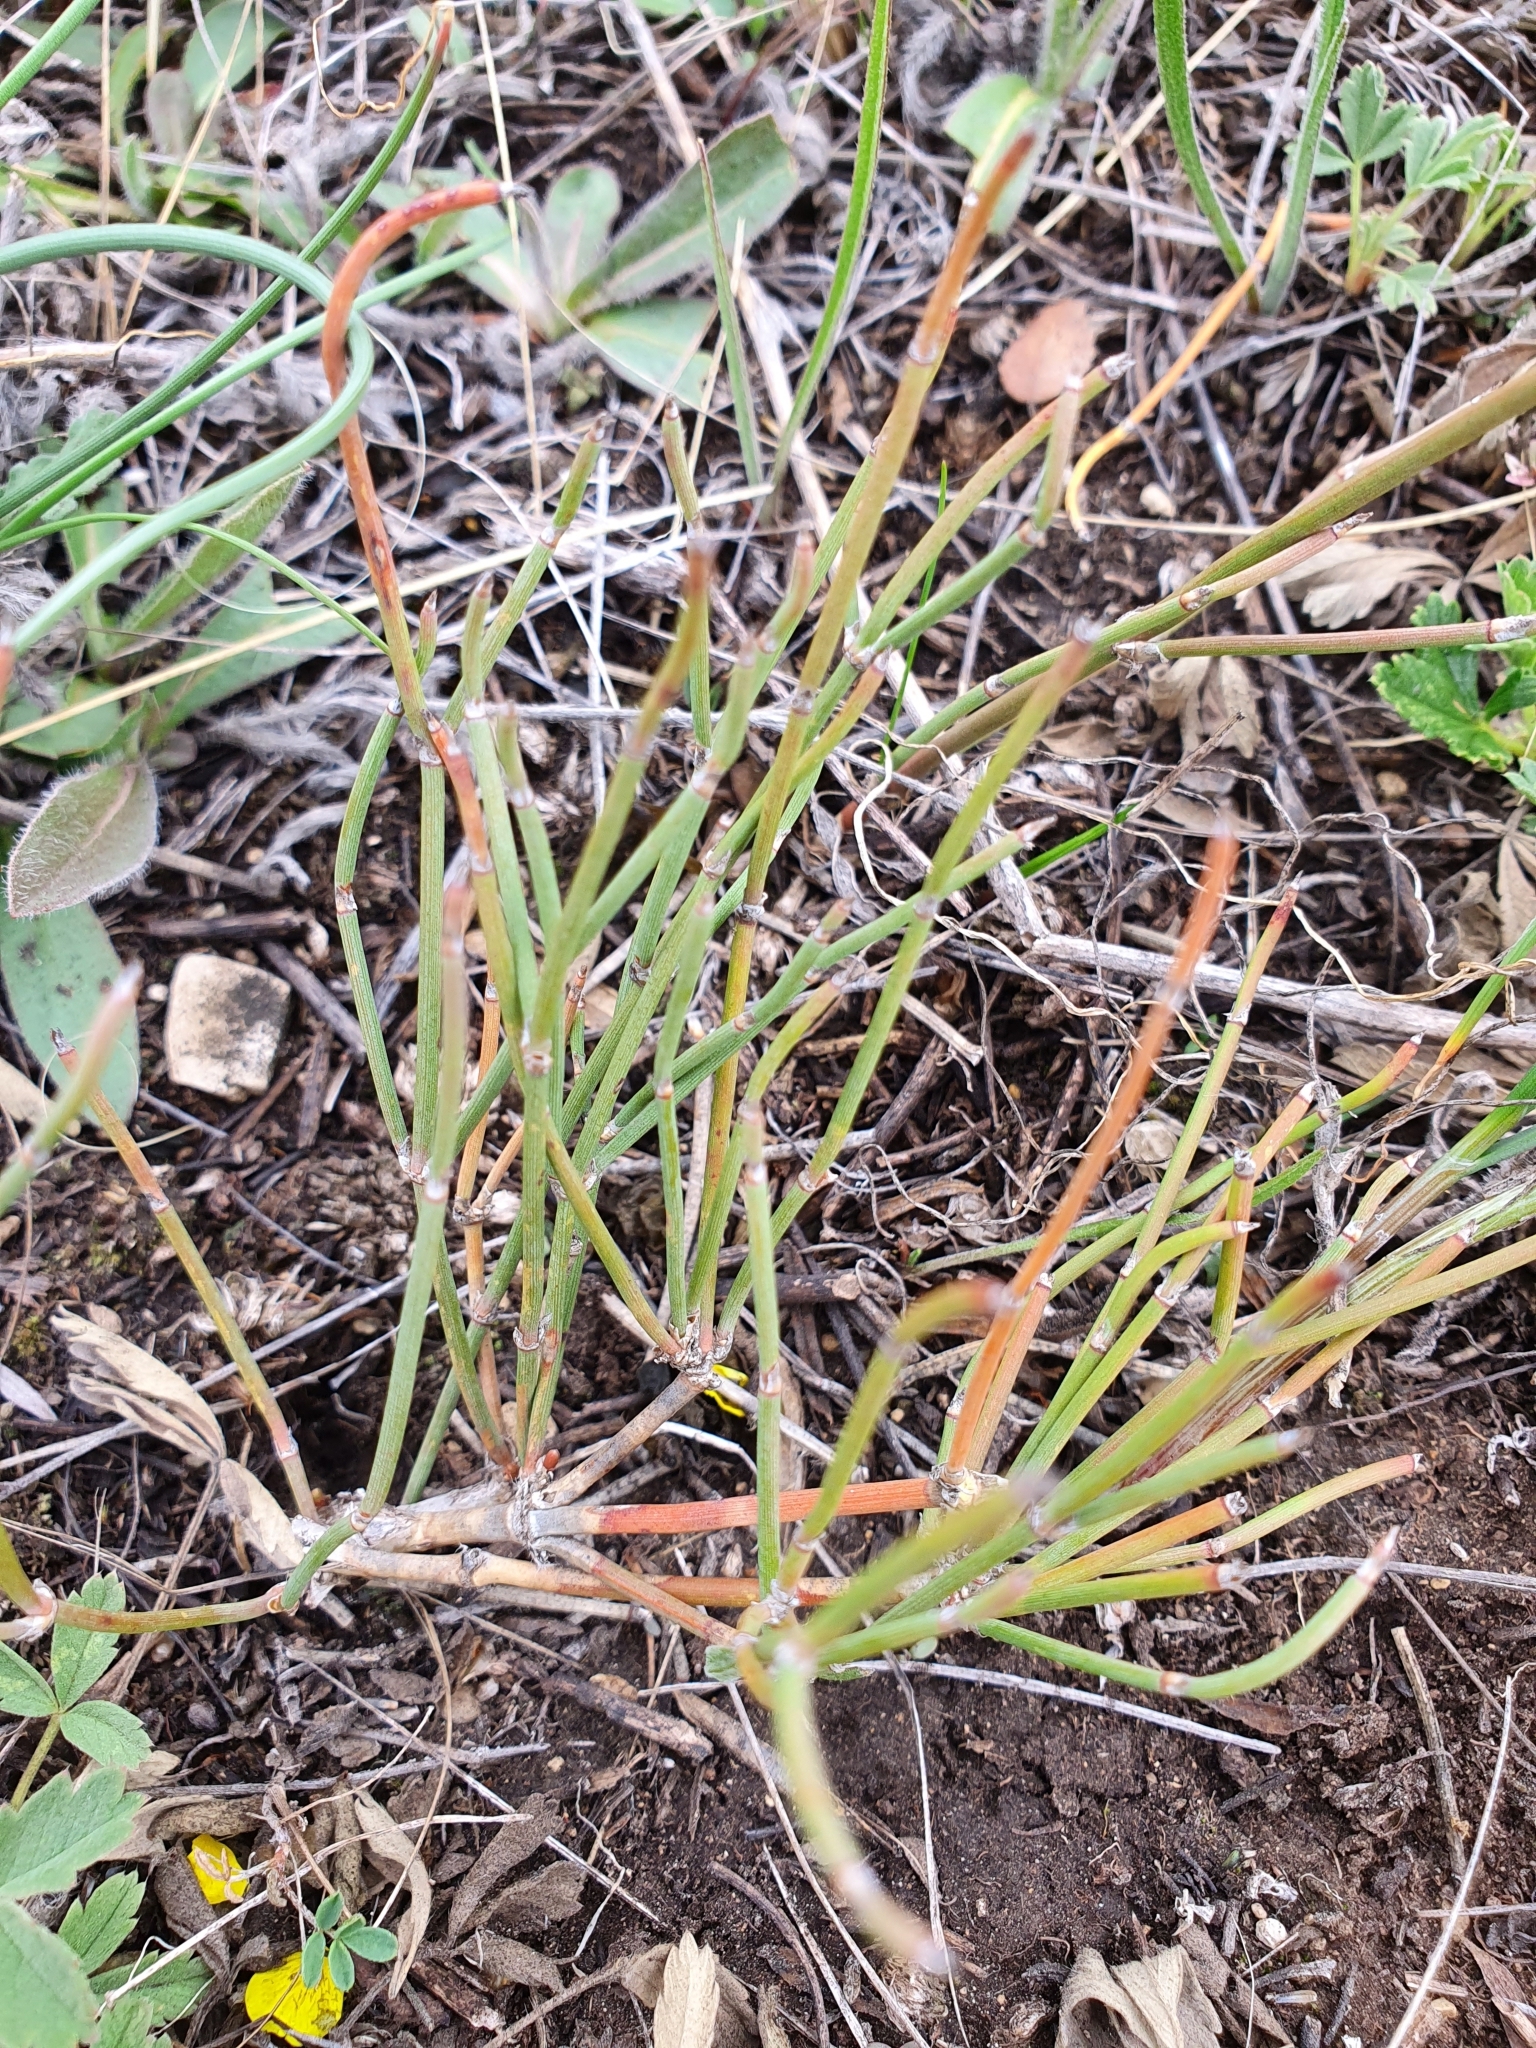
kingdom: Plantae
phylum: Tracheophyta
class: Gnetopsida
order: Ephedrales
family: Ephedraceae
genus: Ephedra
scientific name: Ephedra distachya
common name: Sea grape
